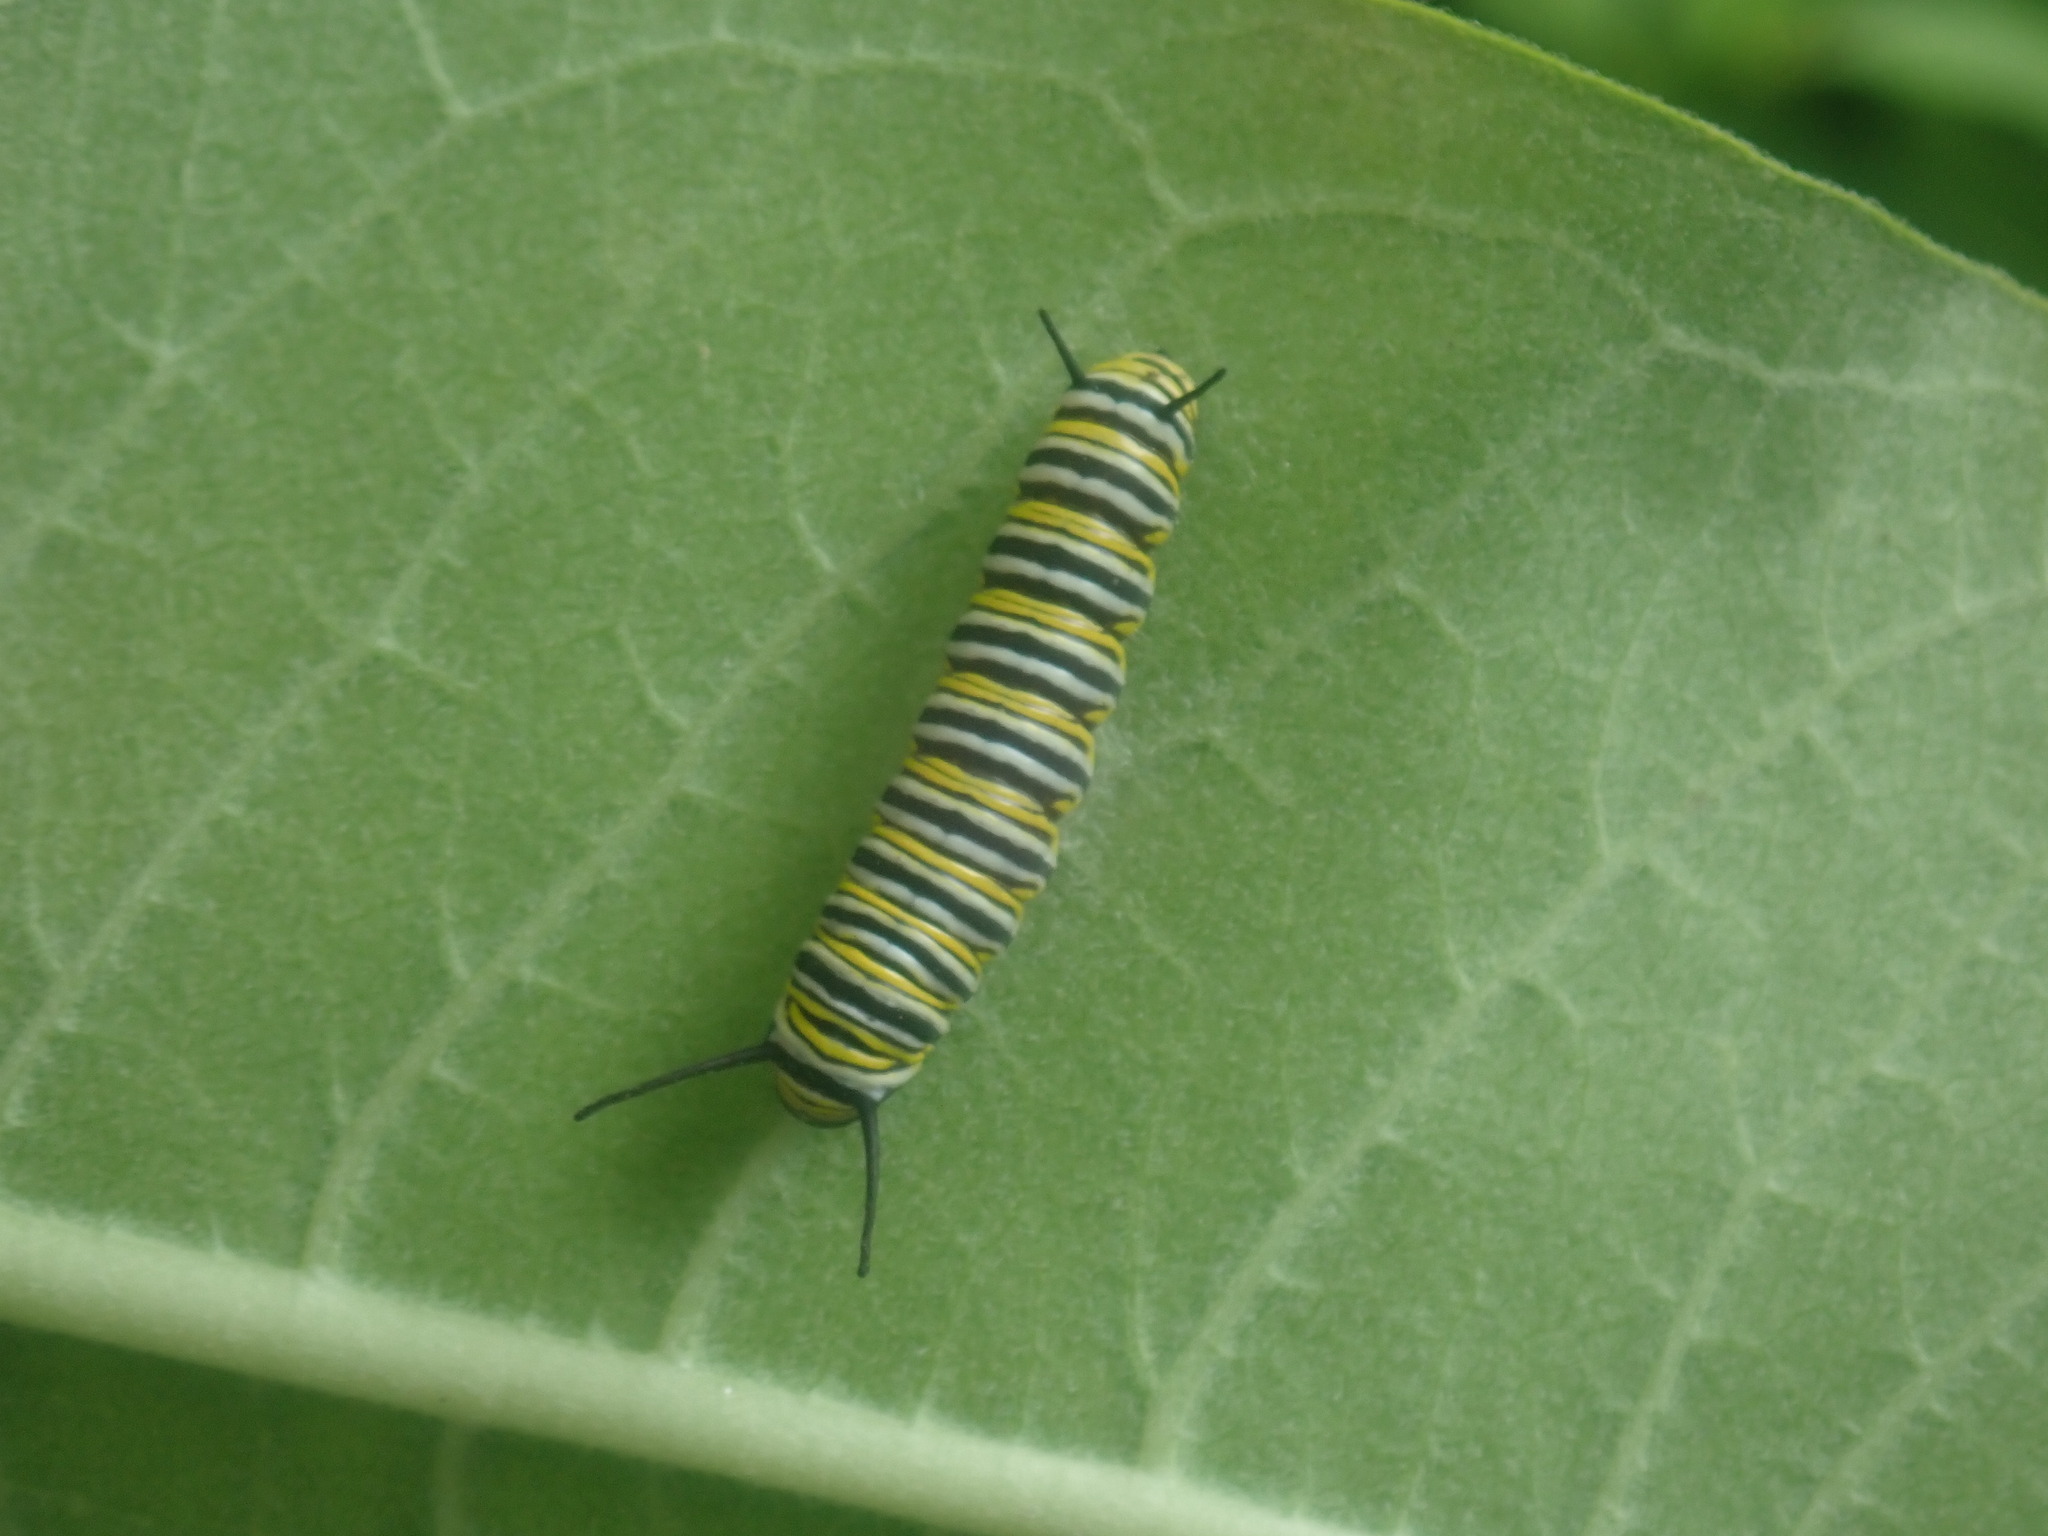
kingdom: Animalia
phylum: Arthropoda
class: Insecta
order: Lepidoptera
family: Nymphalidae
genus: Danaus
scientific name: Danaus plexippus
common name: Monarch
